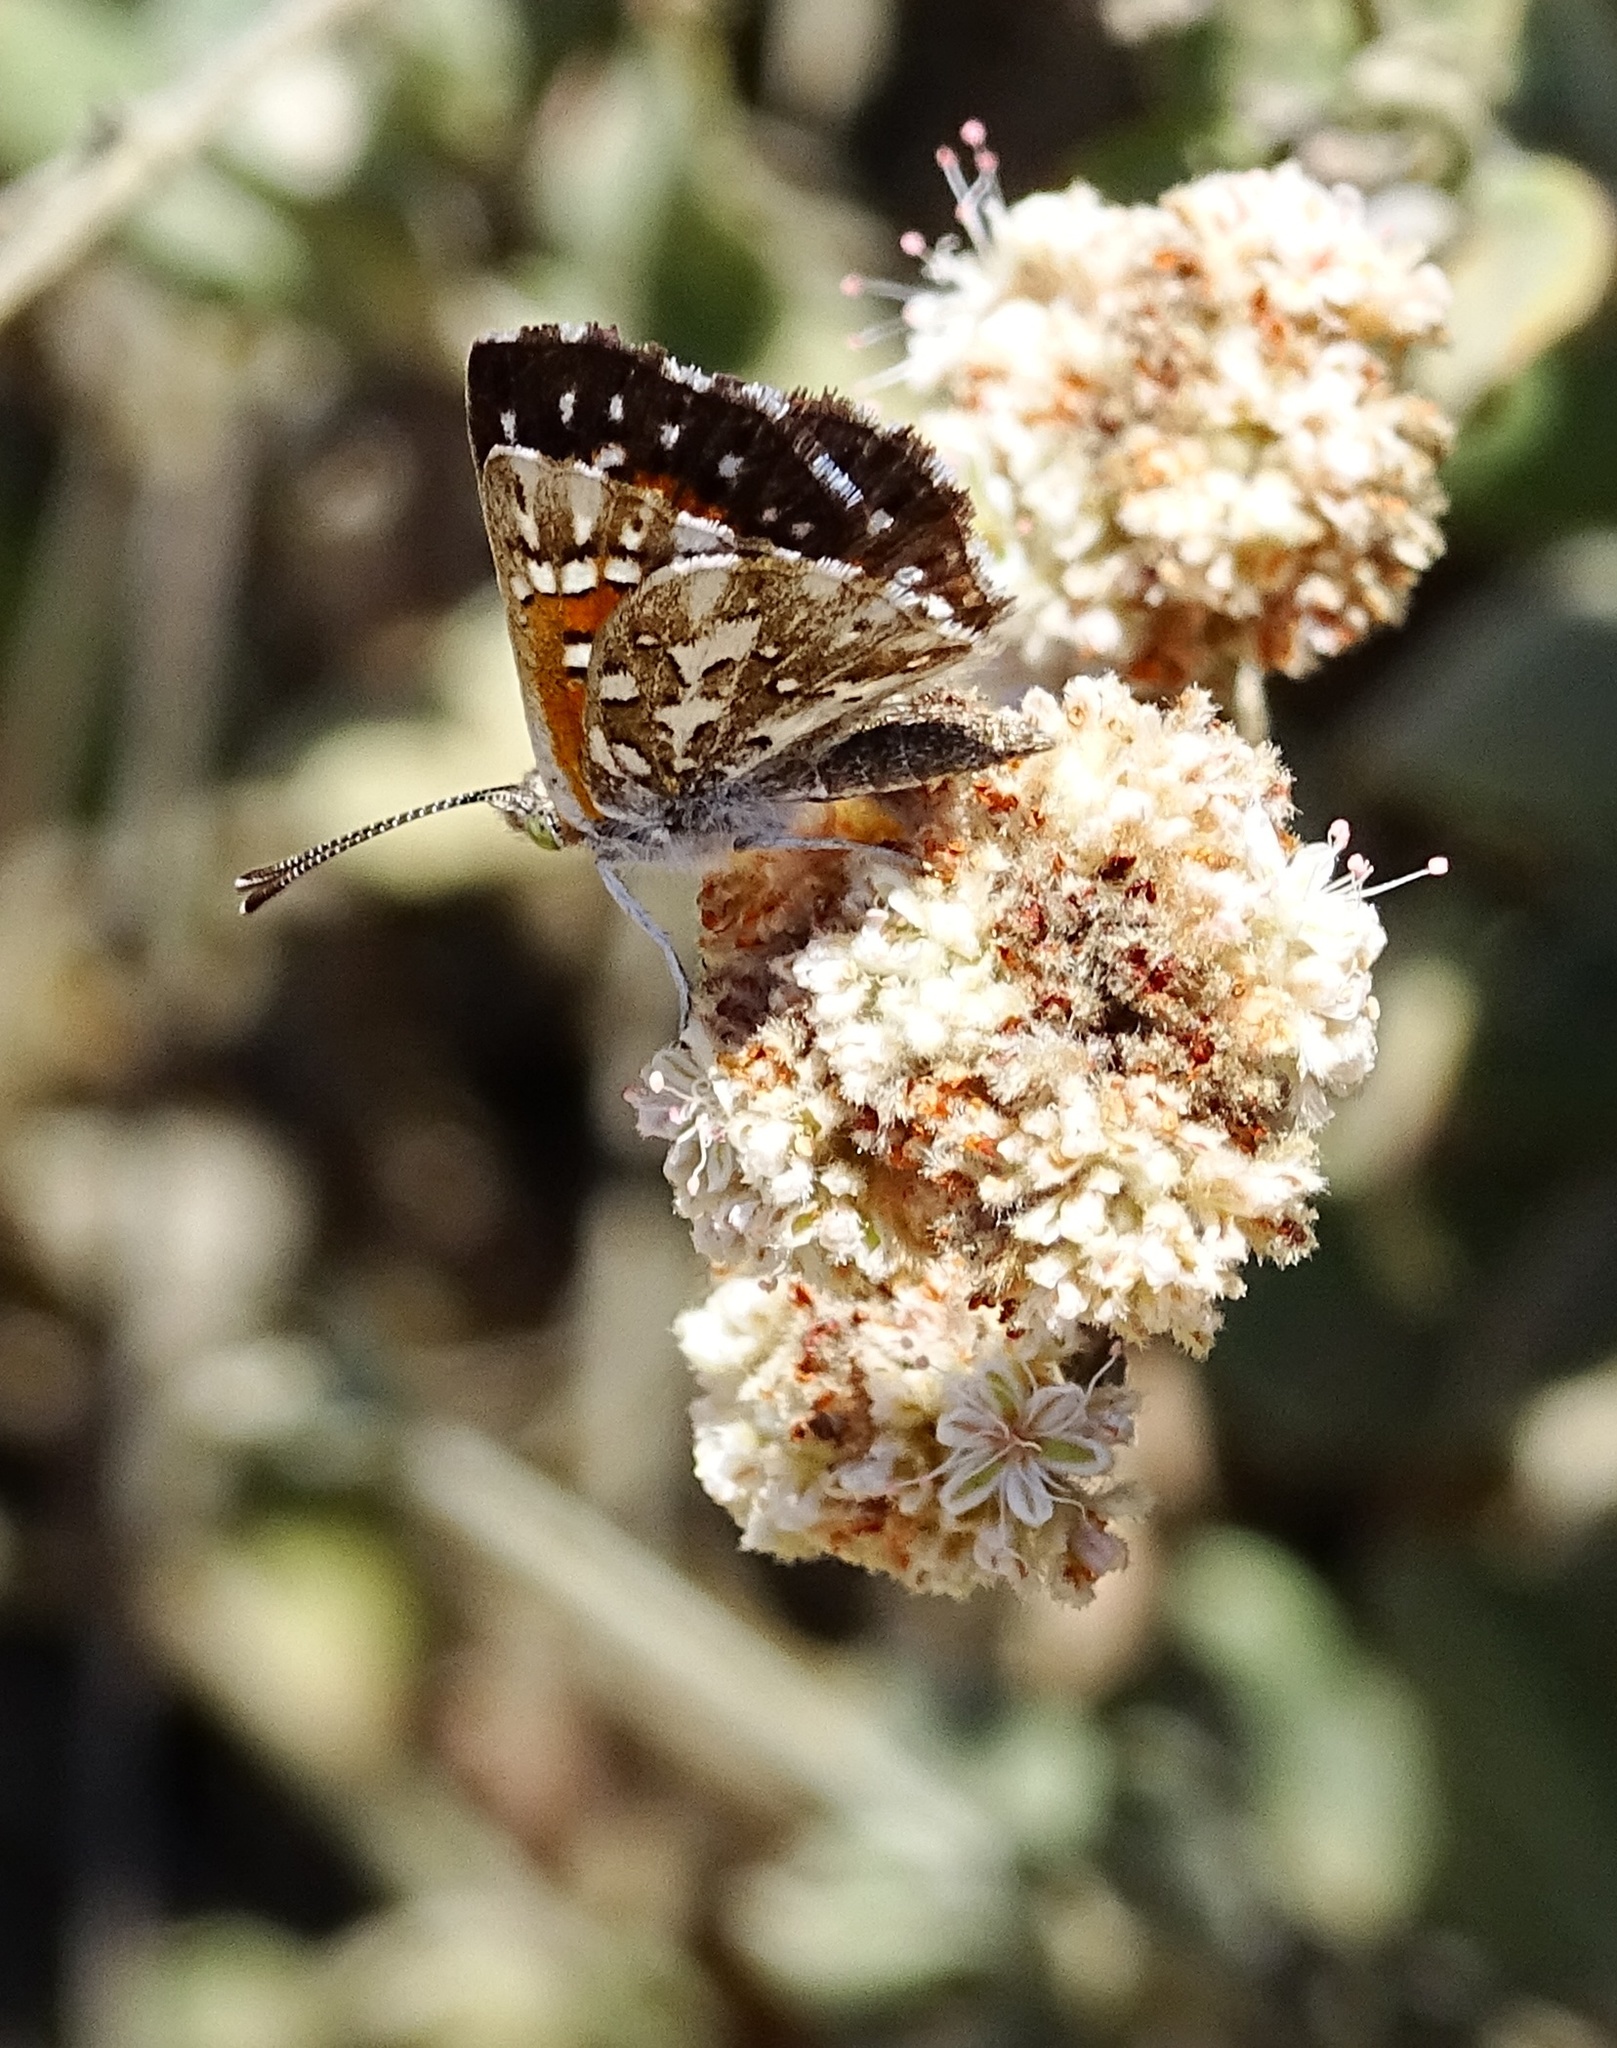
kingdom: Animalia
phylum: Arthropoda
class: Insecta
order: Lepidoptera
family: Riodinidae
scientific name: Riodinidae
